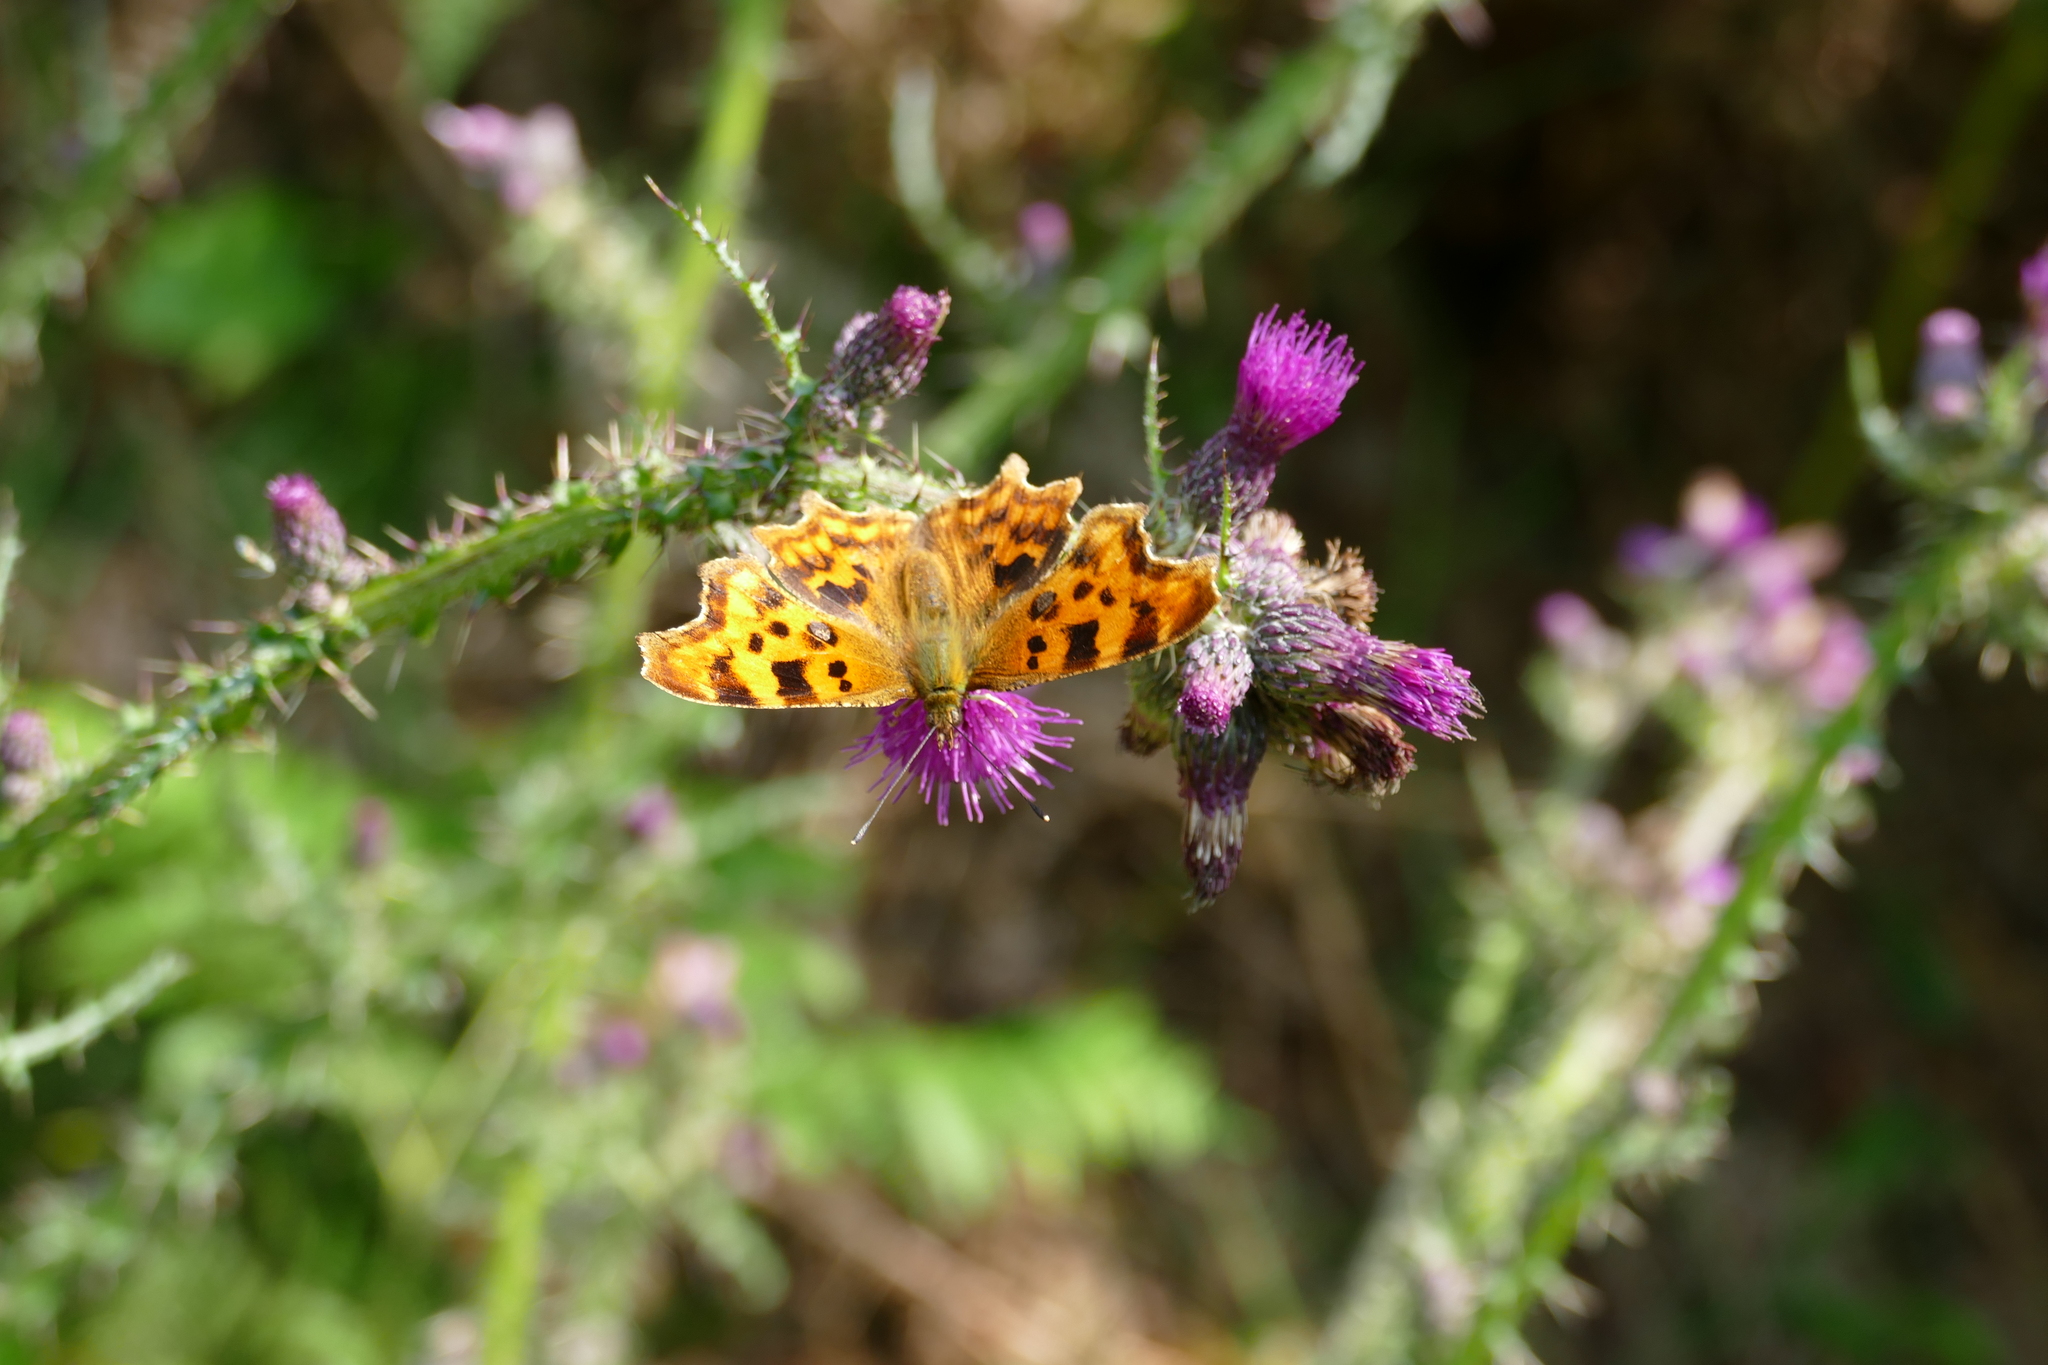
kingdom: Animalia
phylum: Arthropoda
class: Insecta
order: Lepidoptera
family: Nymphalidae
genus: Polygonia
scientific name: Polygonia c-album
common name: Comma
